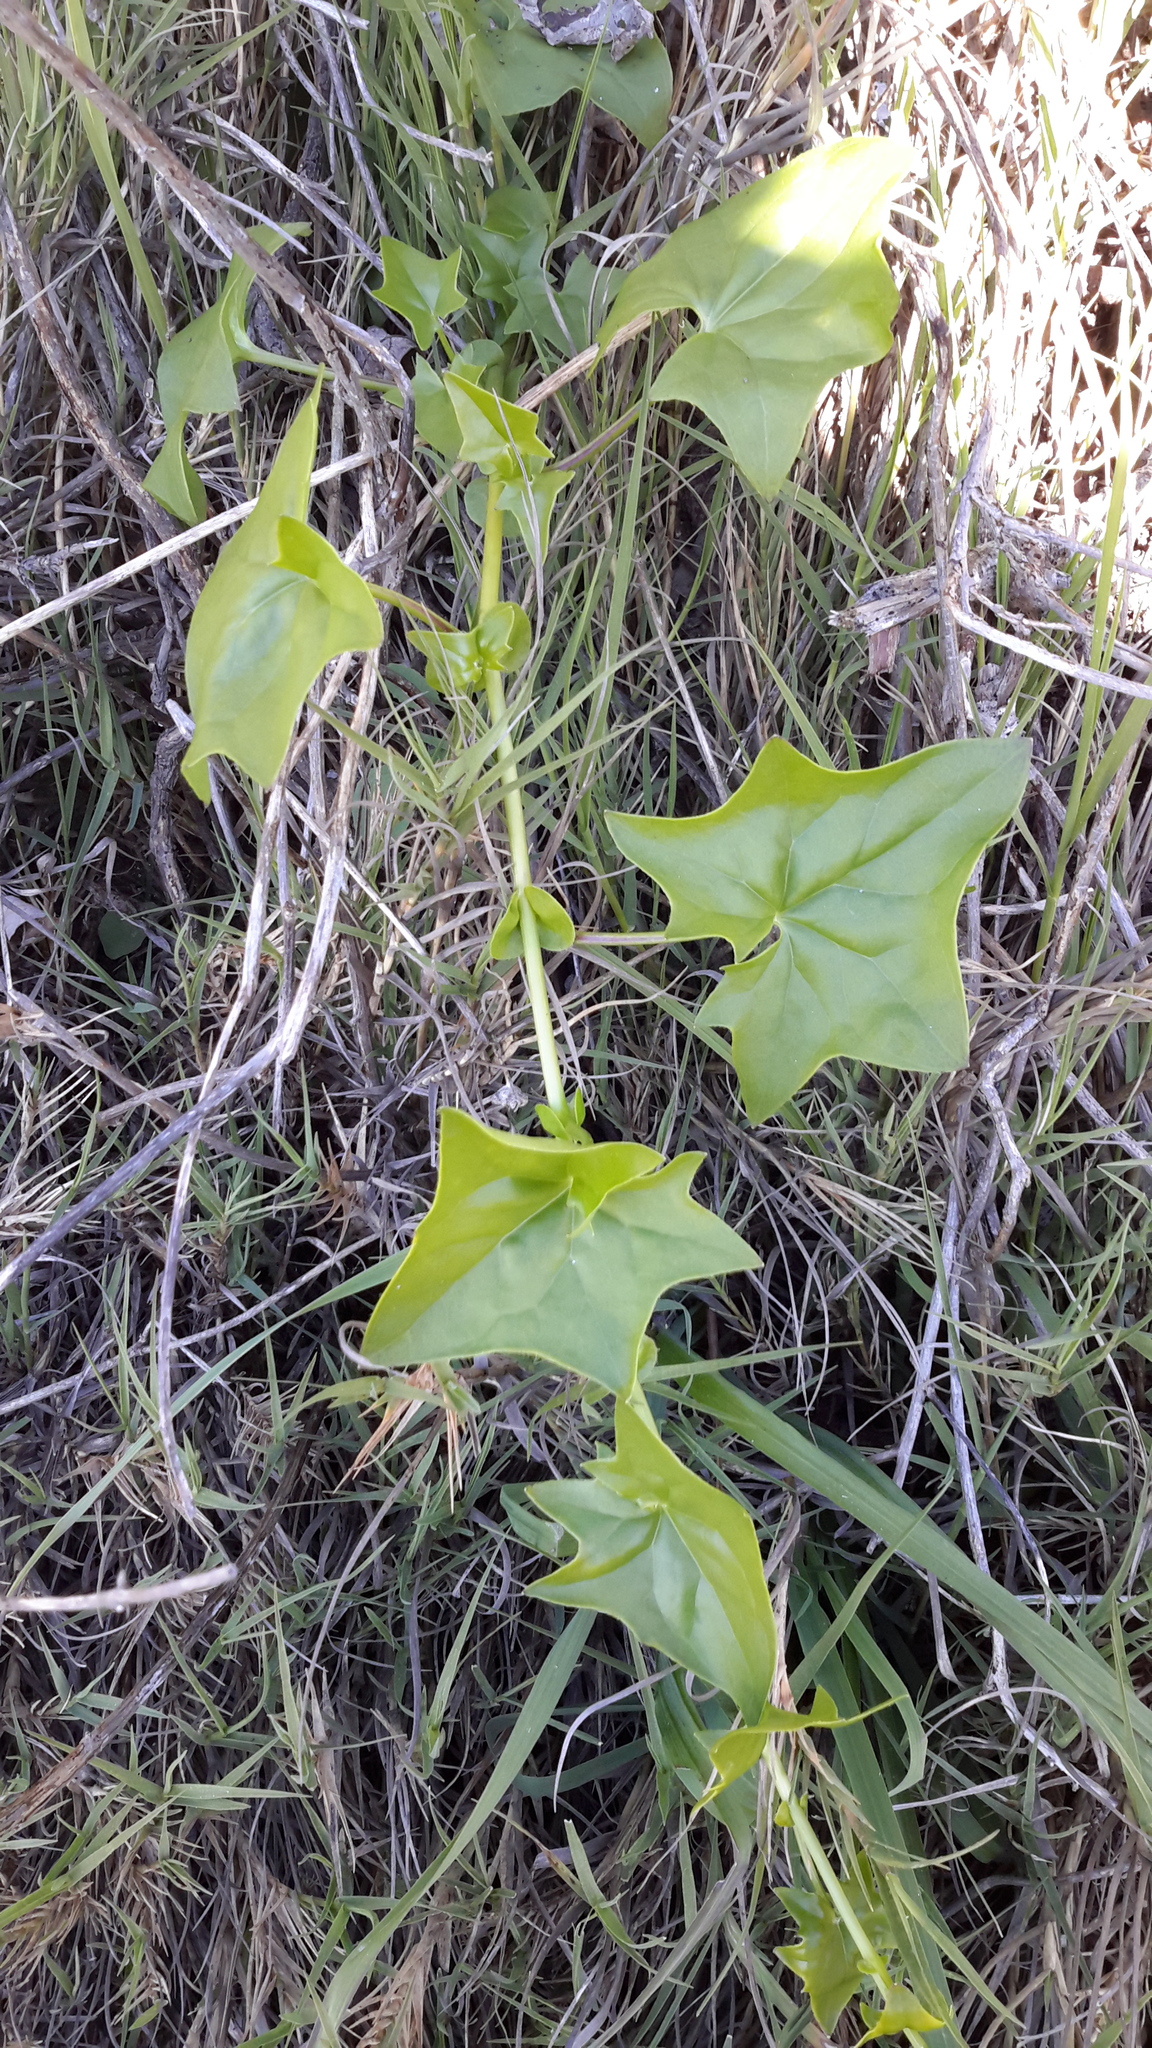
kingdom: Plantae
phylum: Tracheophyta
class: Magnoliopsida
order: Asterales
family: Asteraceae
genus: Delairea
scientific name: Delairea odorata
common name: Cape-ivy
